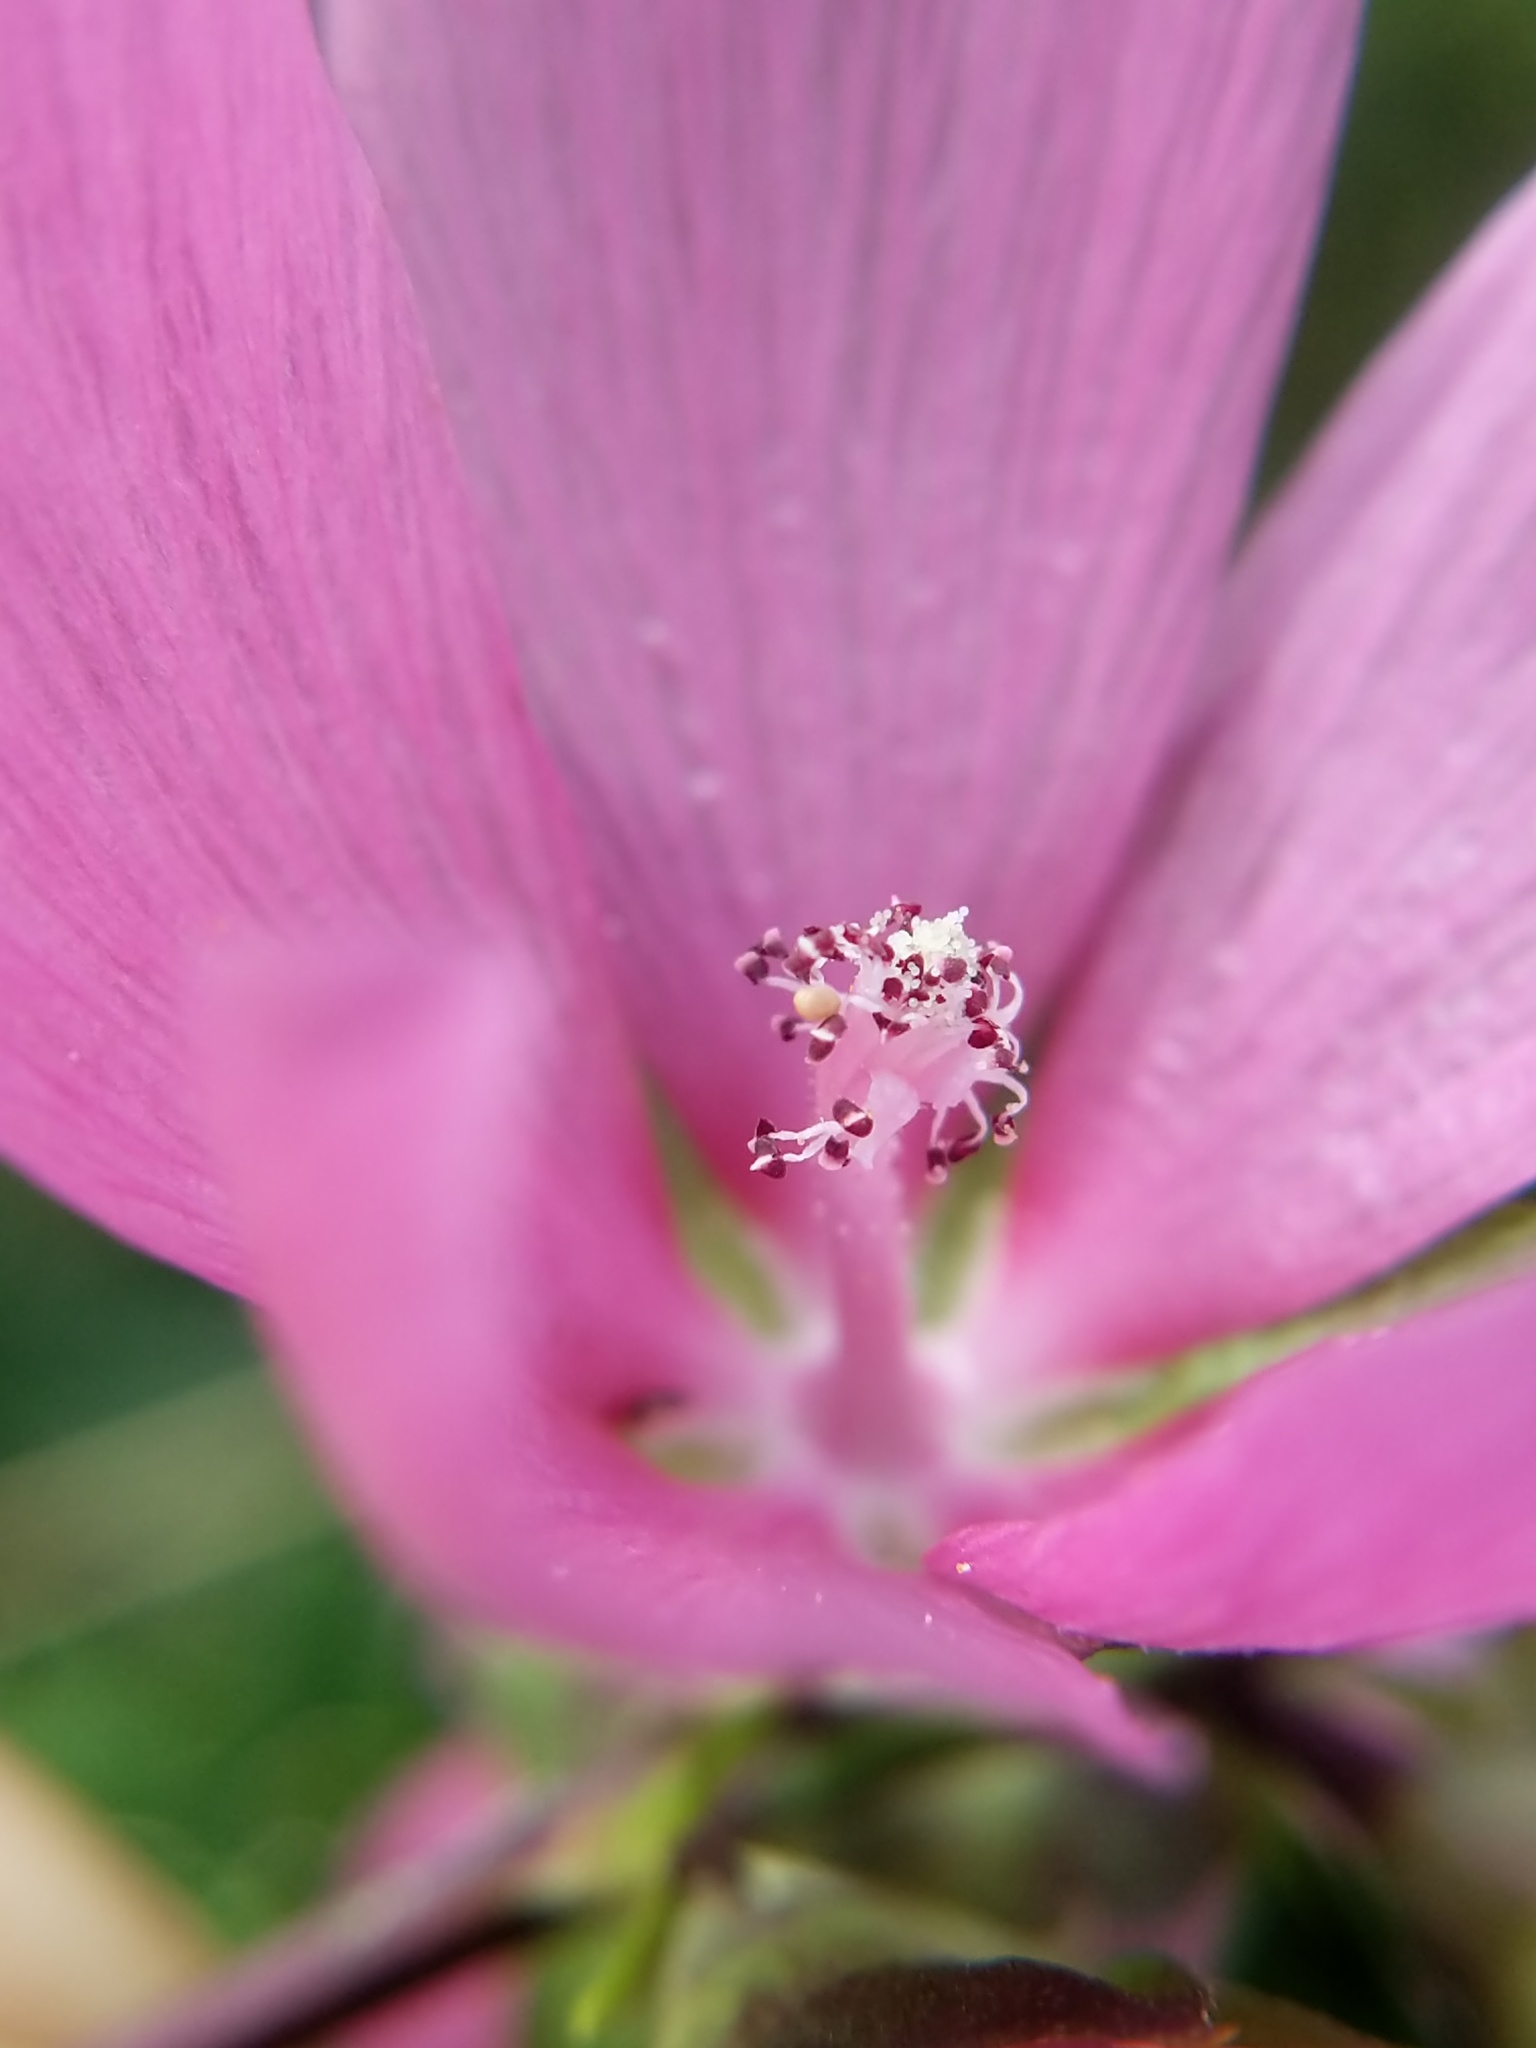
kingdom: Plantae
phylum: Tracheophyta
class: Magnoliopsida
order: Malvales
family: Malvaceae
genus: Sidalcea
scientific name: Sidalcea hendersonii
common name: Mallow
